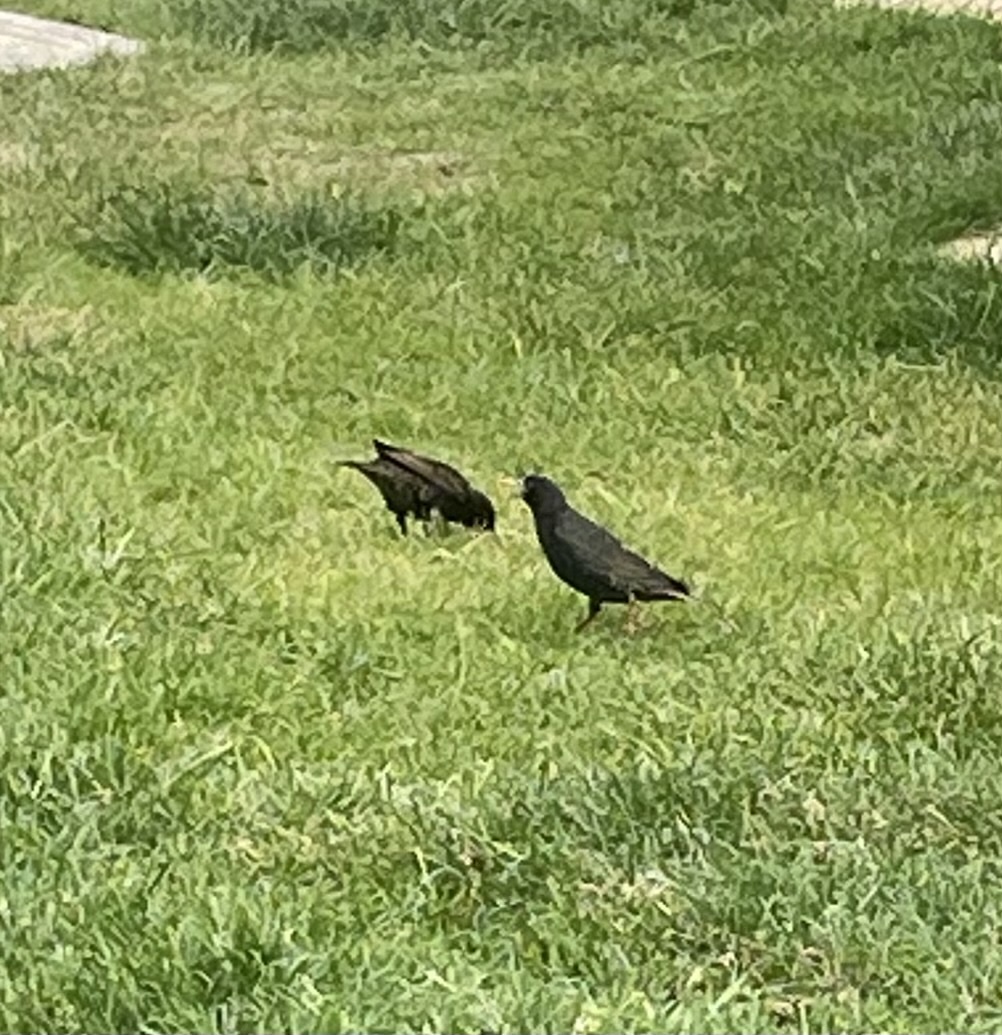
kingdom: Animalia
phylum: Chordata
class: Aves
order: Passeriformes
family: Sturnidae
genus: Sturnus
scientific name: Sturnus vulgaris
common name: Common starling
